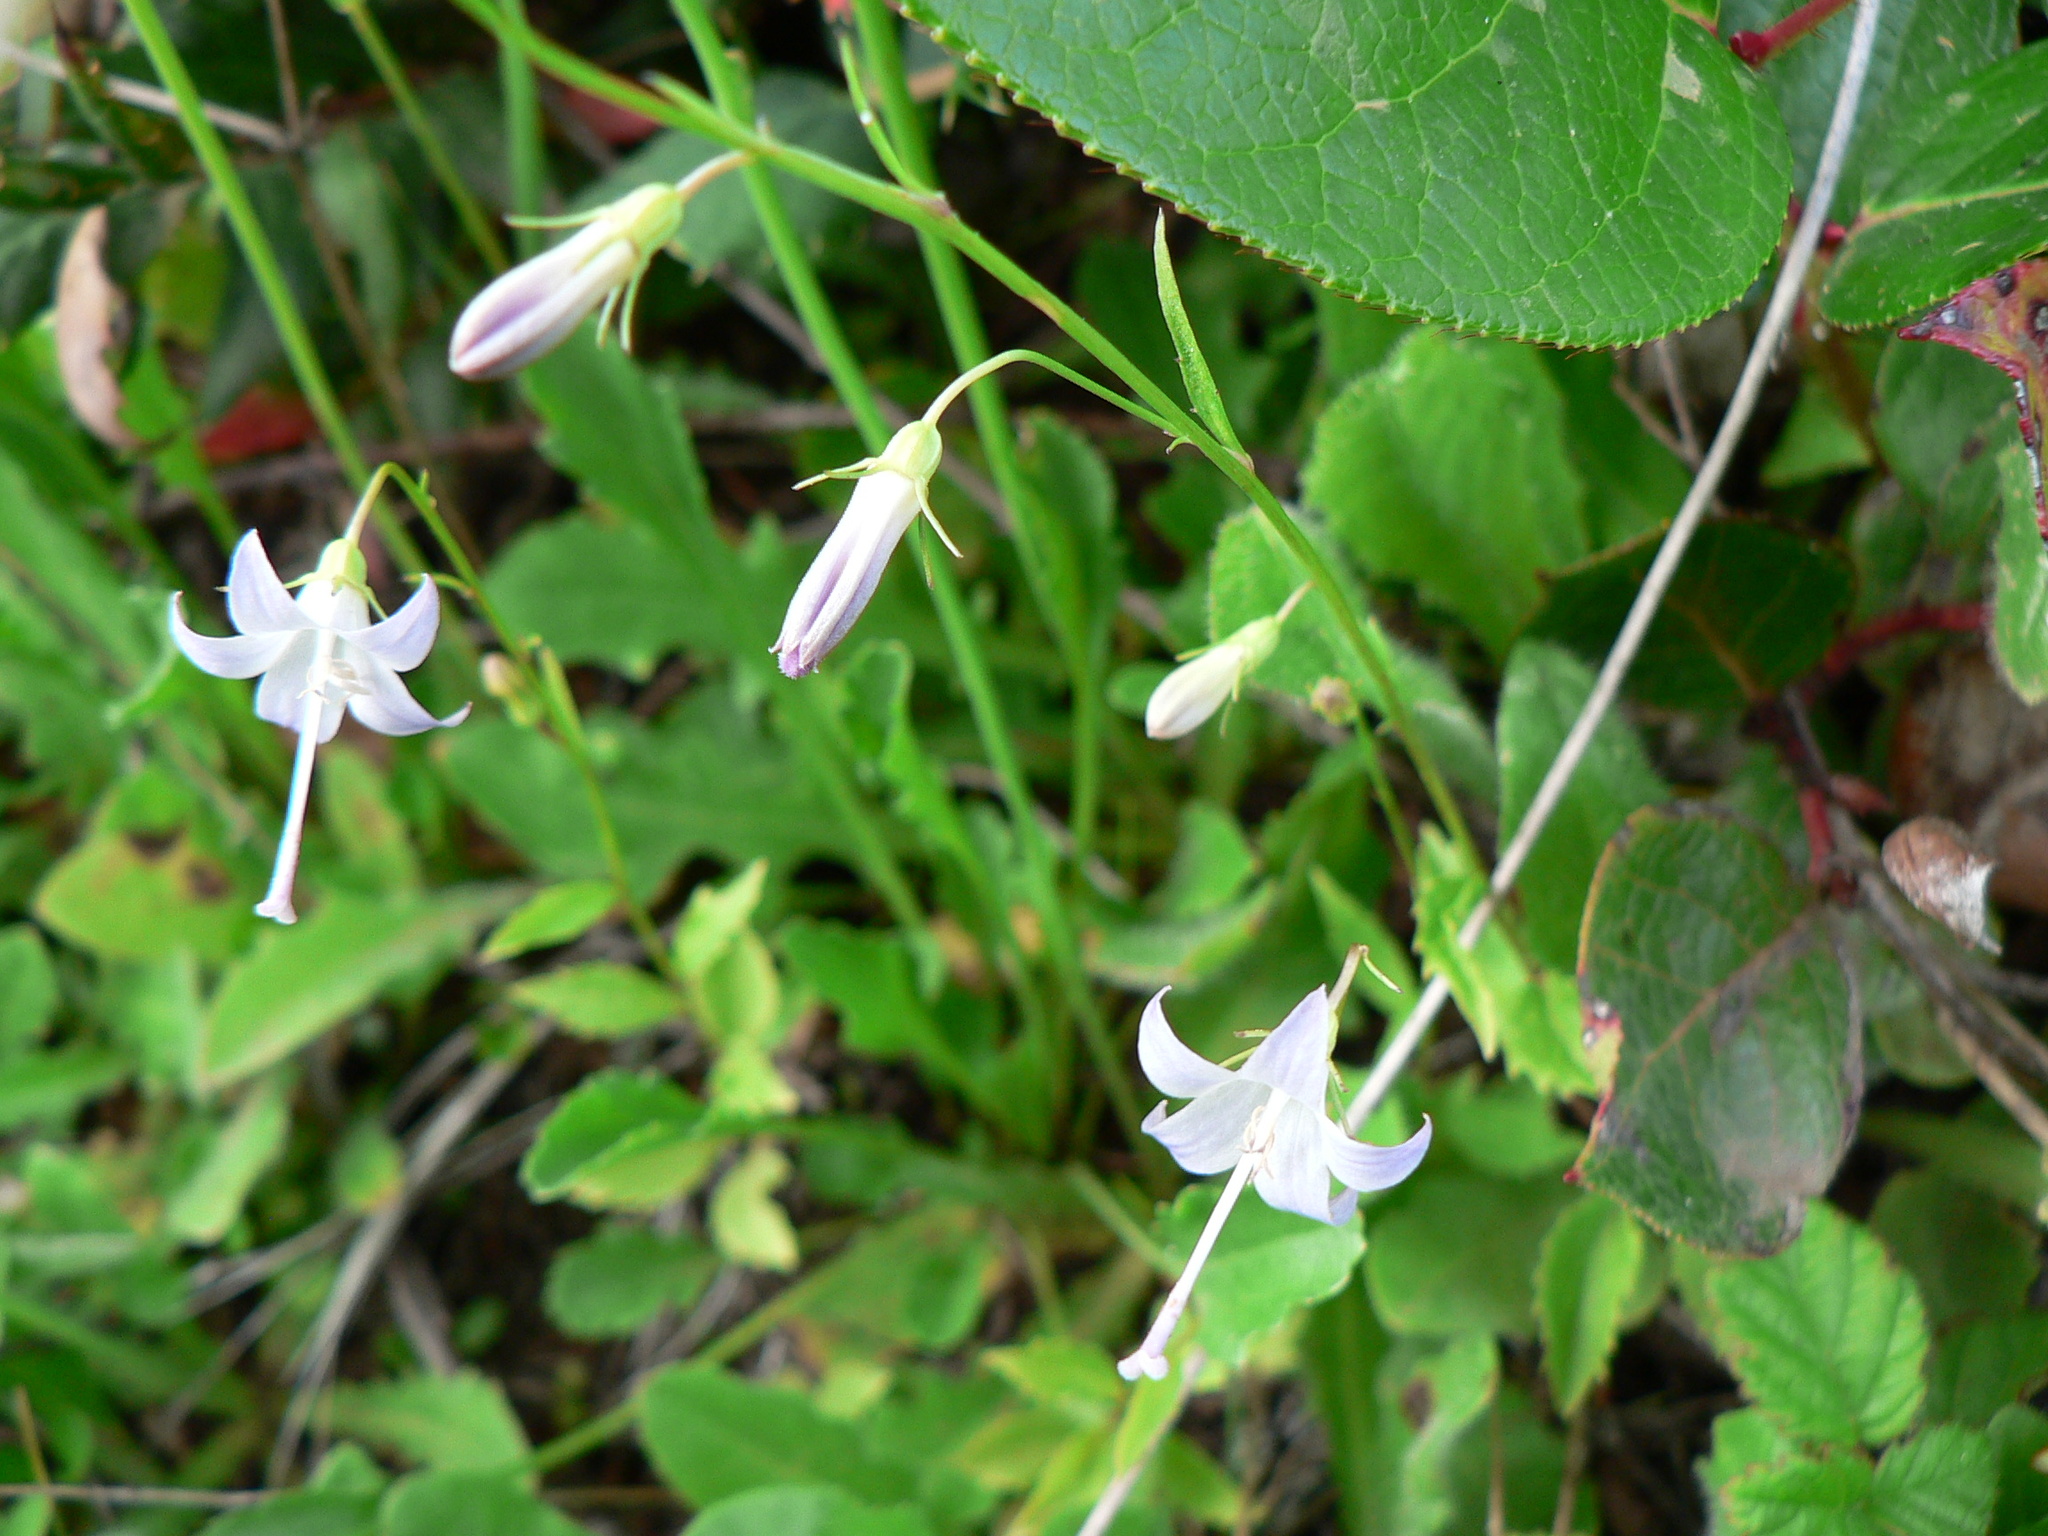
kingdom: Plantae
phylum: Tracheophyta
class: Magnoliopsida
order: Asterales
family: Campanulaceae
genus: Campanula
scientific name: Campanula scouleri
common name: Scouler's harebell
